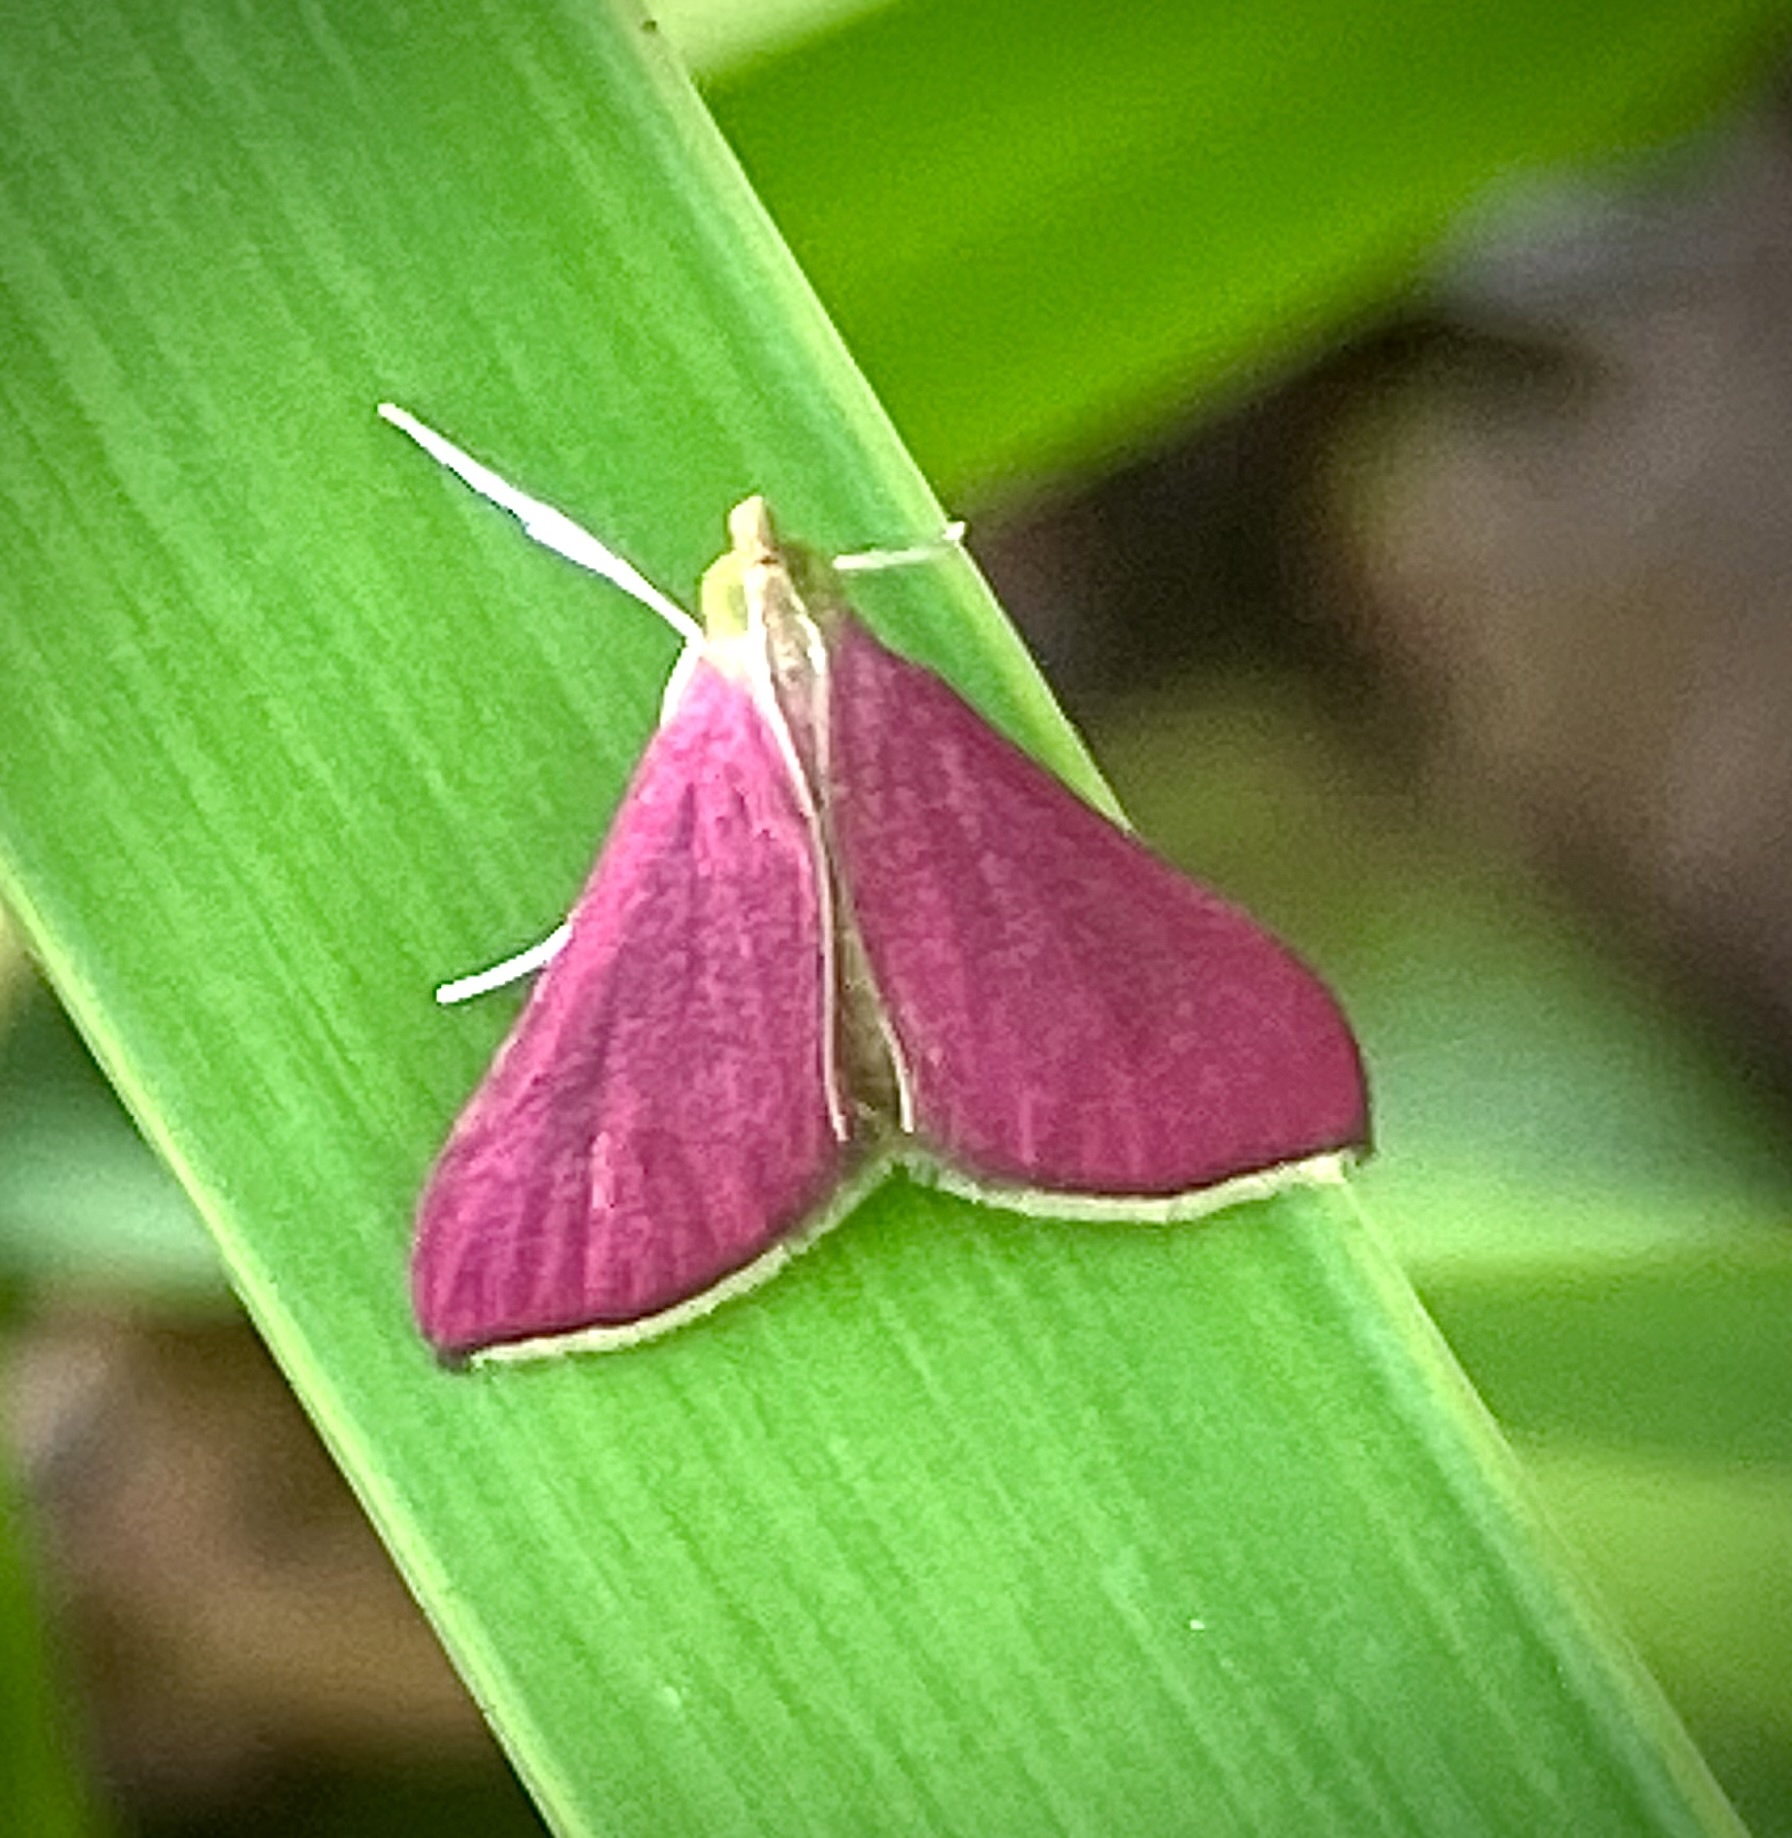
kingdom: Animalia
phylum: Arthropoda
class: Insecta
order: Lepidoptera
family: Crambidae
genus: Pyrausta
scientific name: Pyrausta inornatalis
